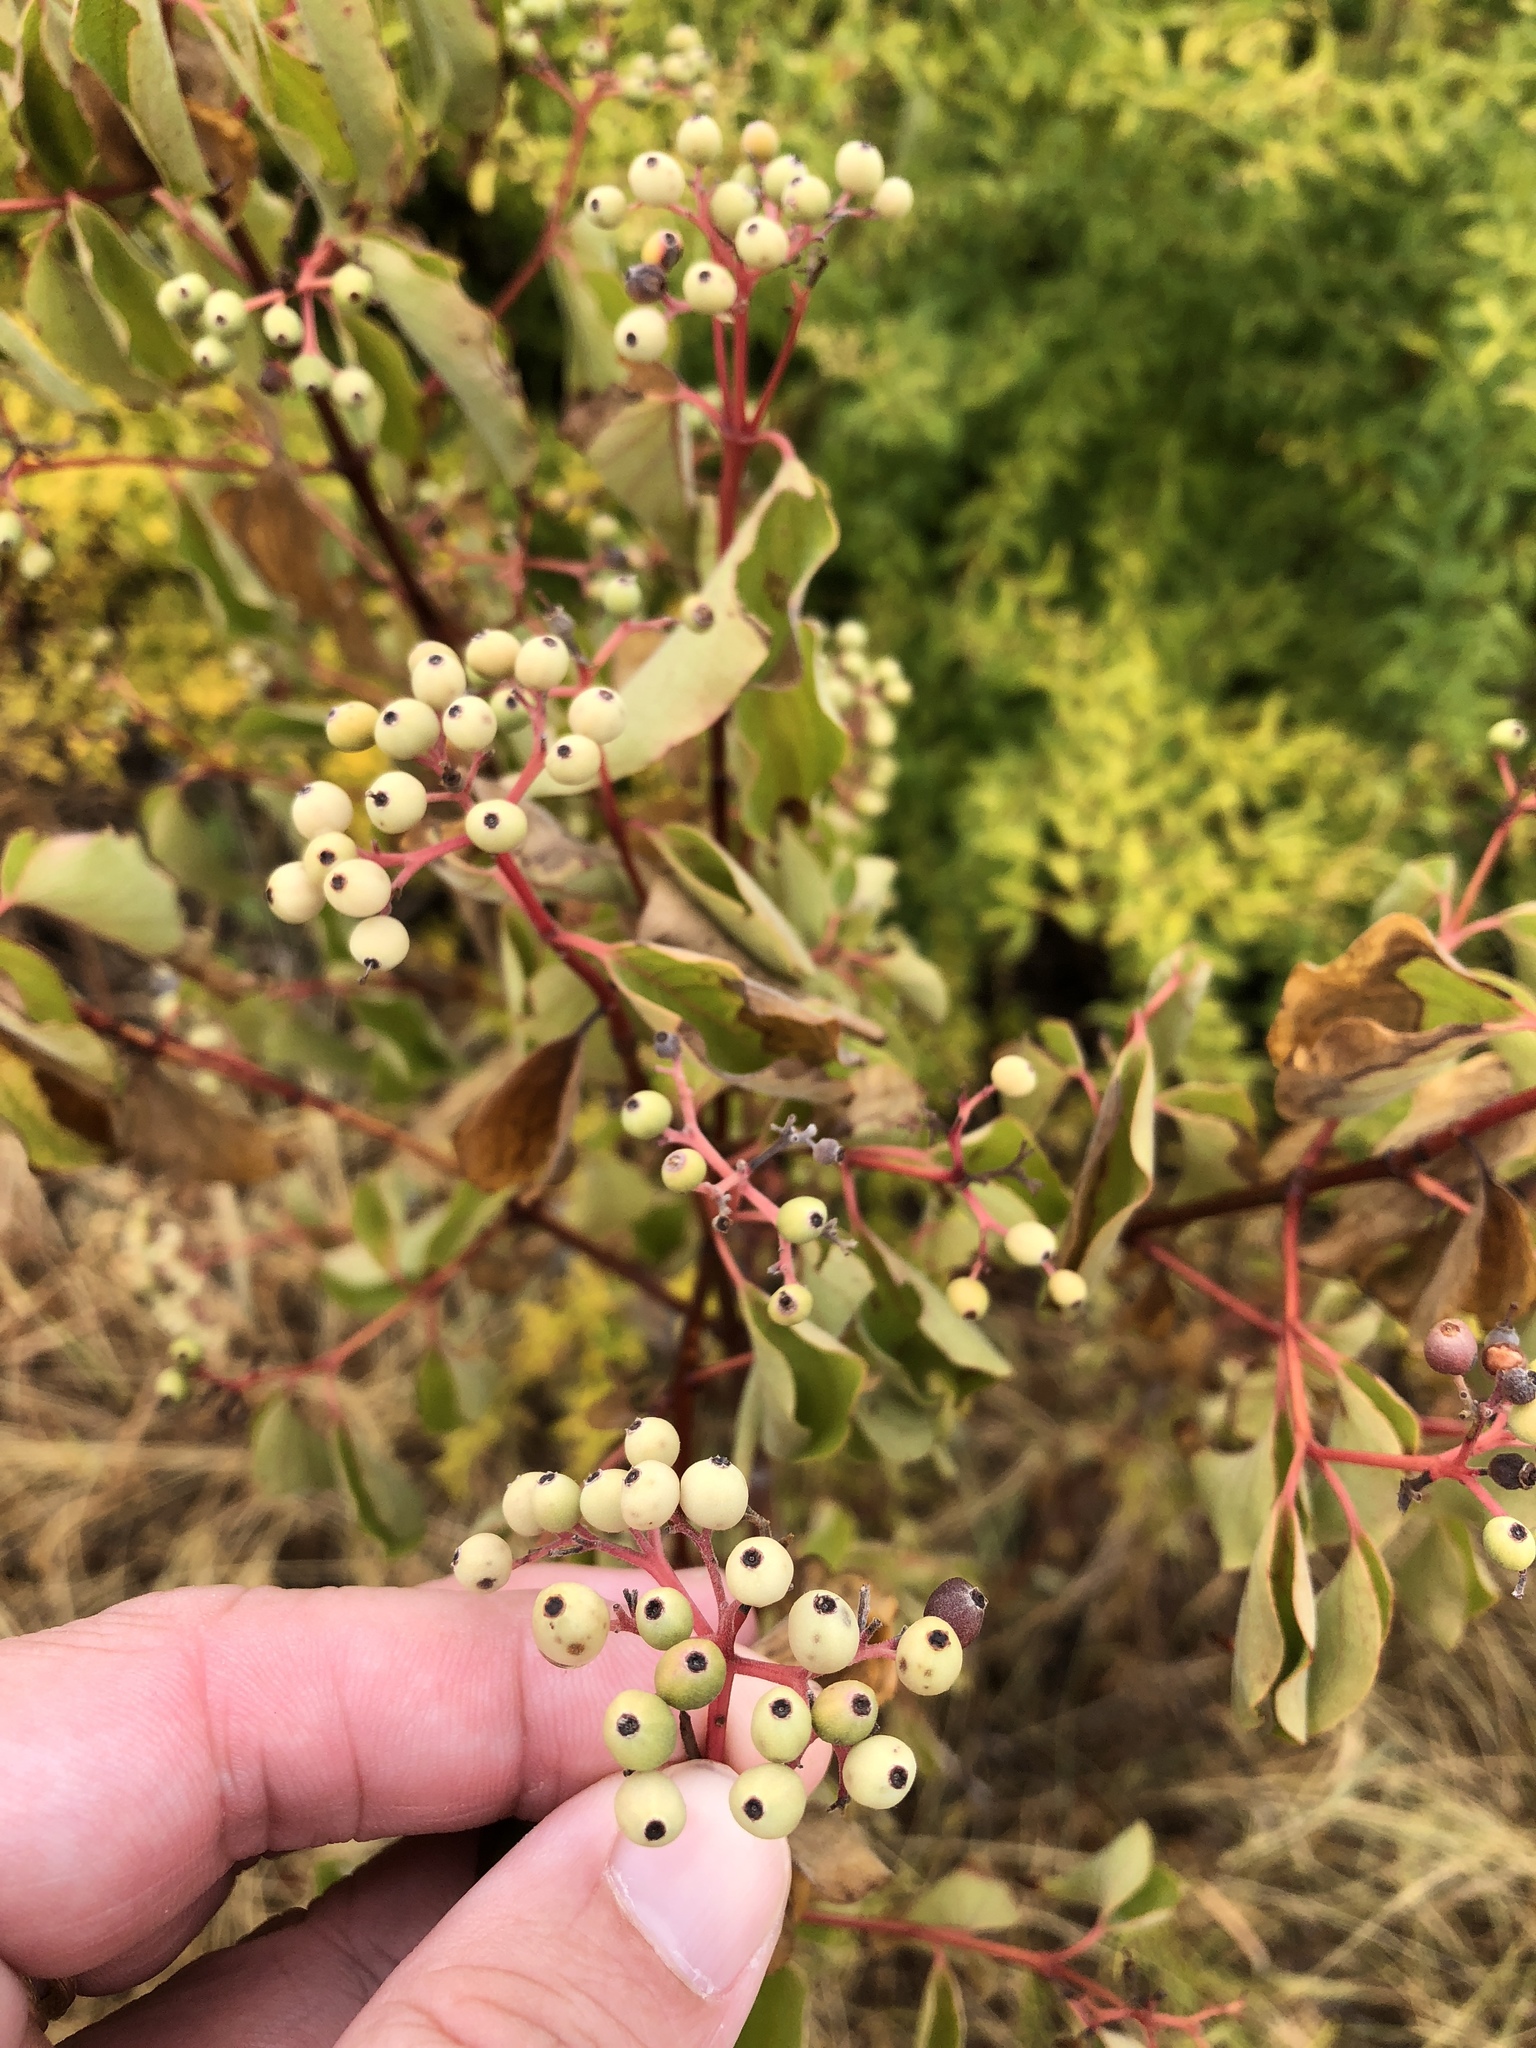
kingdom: Plantae
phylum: Tracheophyta
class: Magnoliopsida
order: Cornales
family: Cornaceae
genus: Cornus
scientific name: Cornus drummondii
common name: Rough-leaf dogwood
